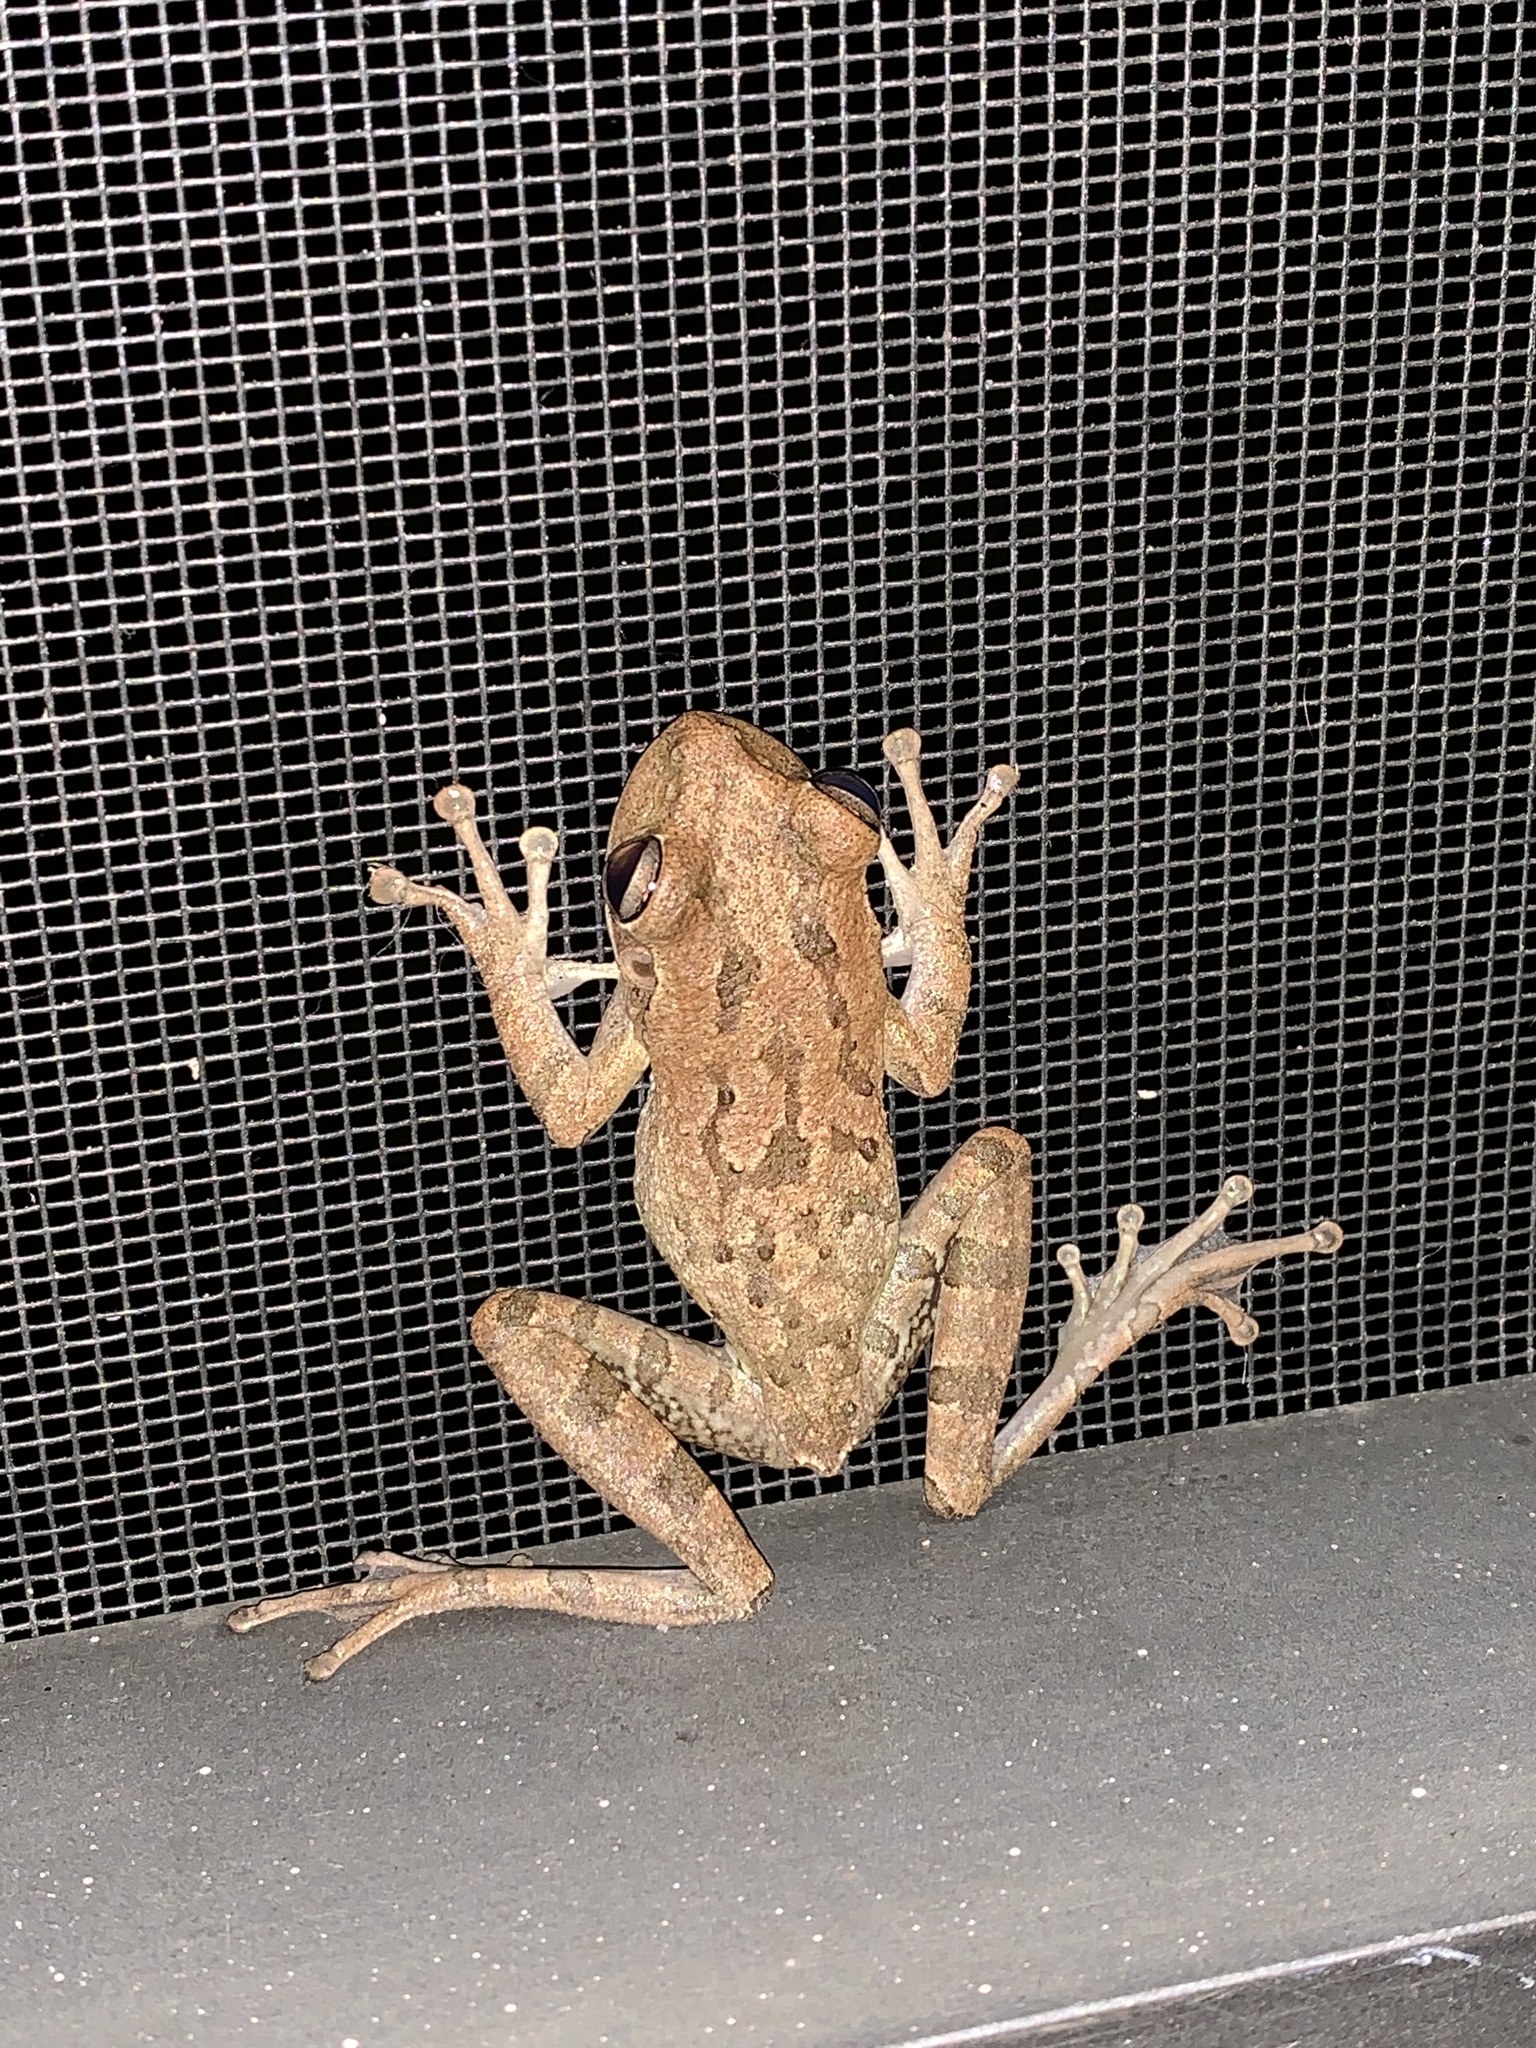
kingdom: Animalia
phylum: Chordata
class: Amphibia
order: Anura
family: Hylidae
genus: Osteopilus
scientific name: Osteopilus septentrionalis
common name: Cuban treefrog
